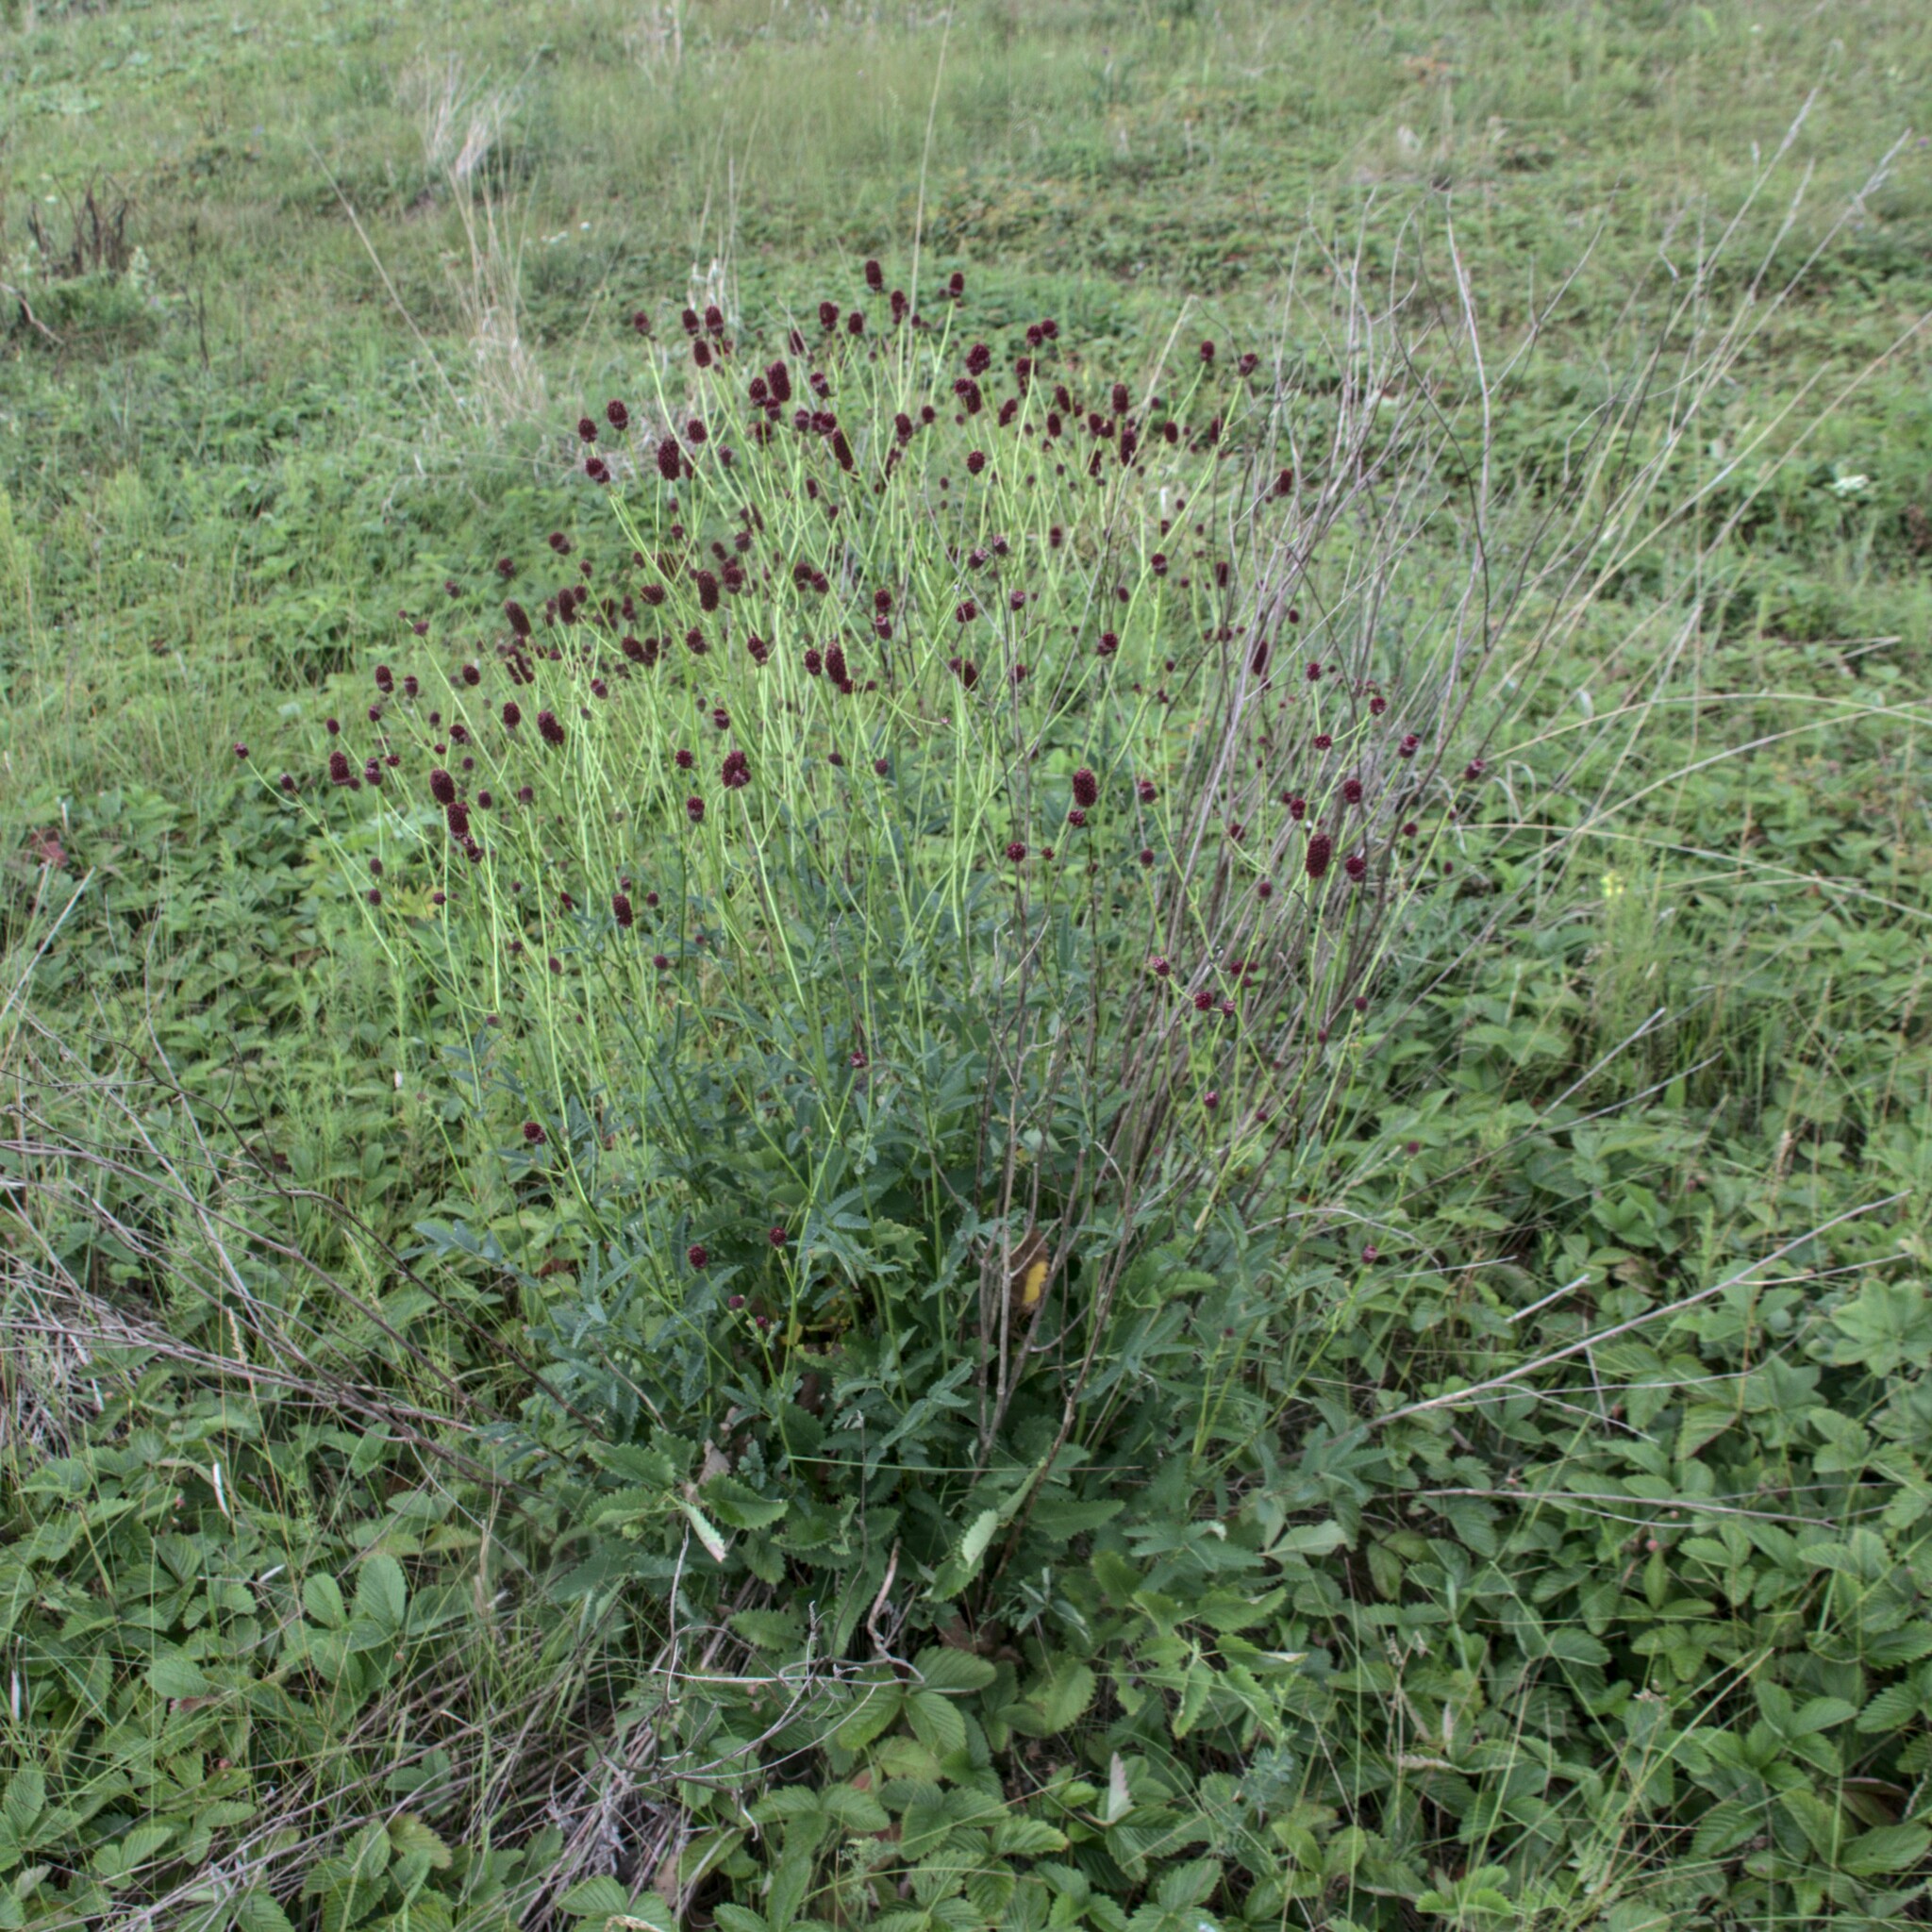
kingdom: Plantae
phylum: Tracheophyta
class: Magnoliopsida
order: Rosales
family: Rosaceae
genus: Sanguisorba
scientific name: Sanguisorba officinalis
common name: Great burnet
